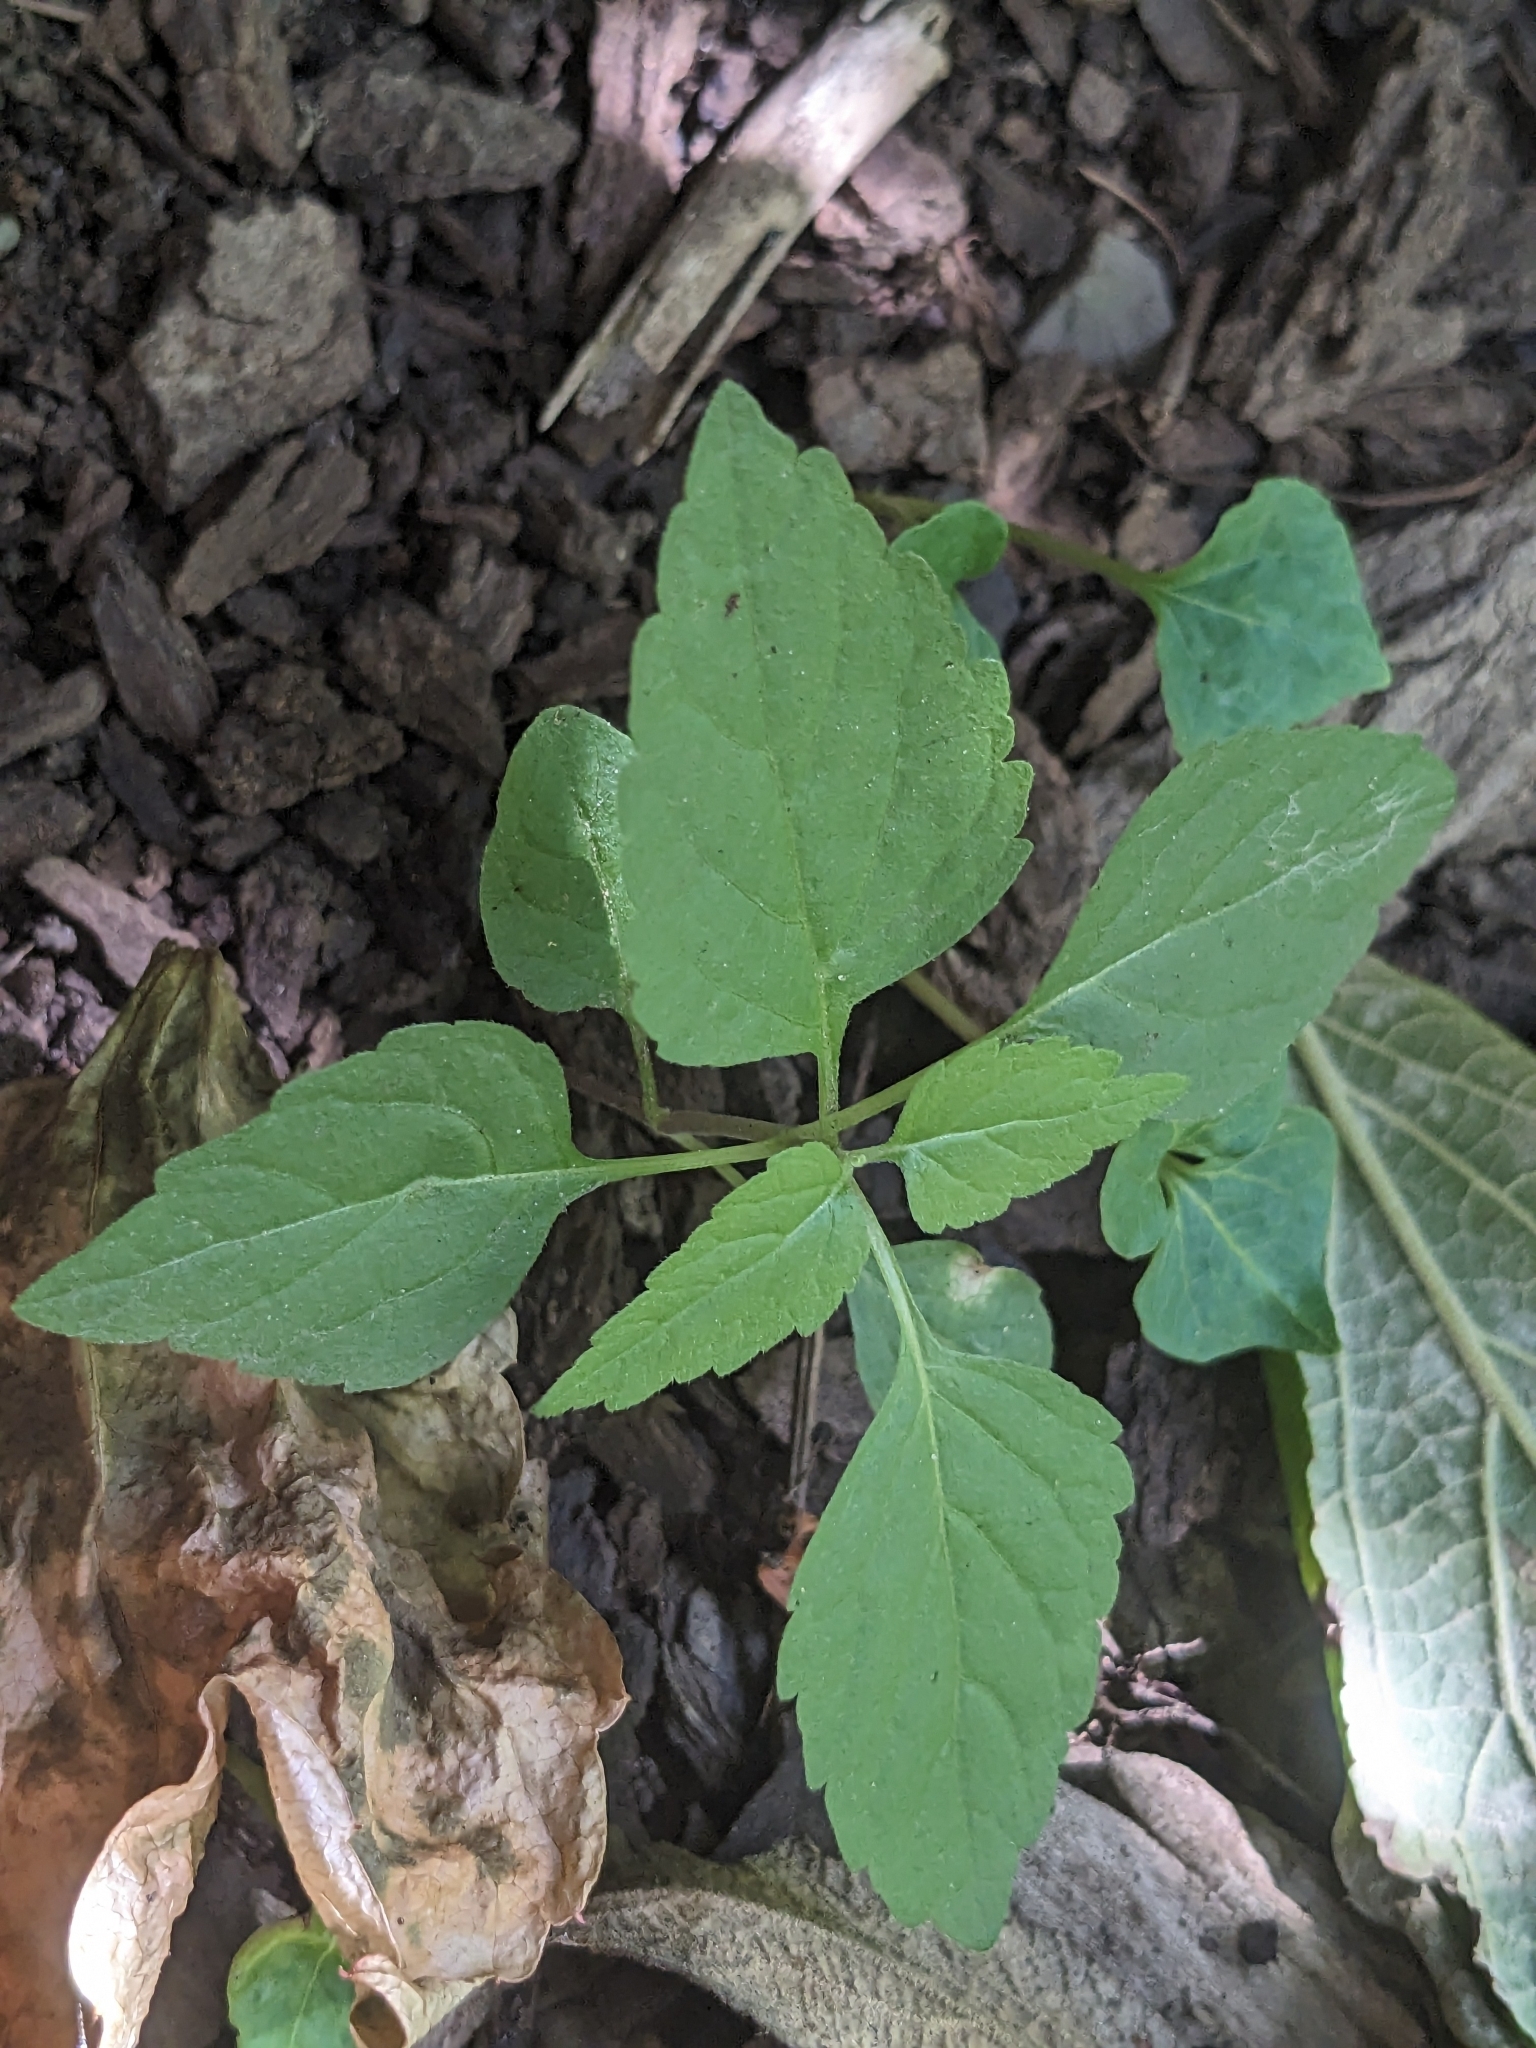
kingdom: Plantae
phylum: Tracheophyta
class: Magnoliopsida
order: Lamiales
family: Phrymaceae
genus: Phryma
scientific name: Phryma leptostachya
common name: American lopseed
